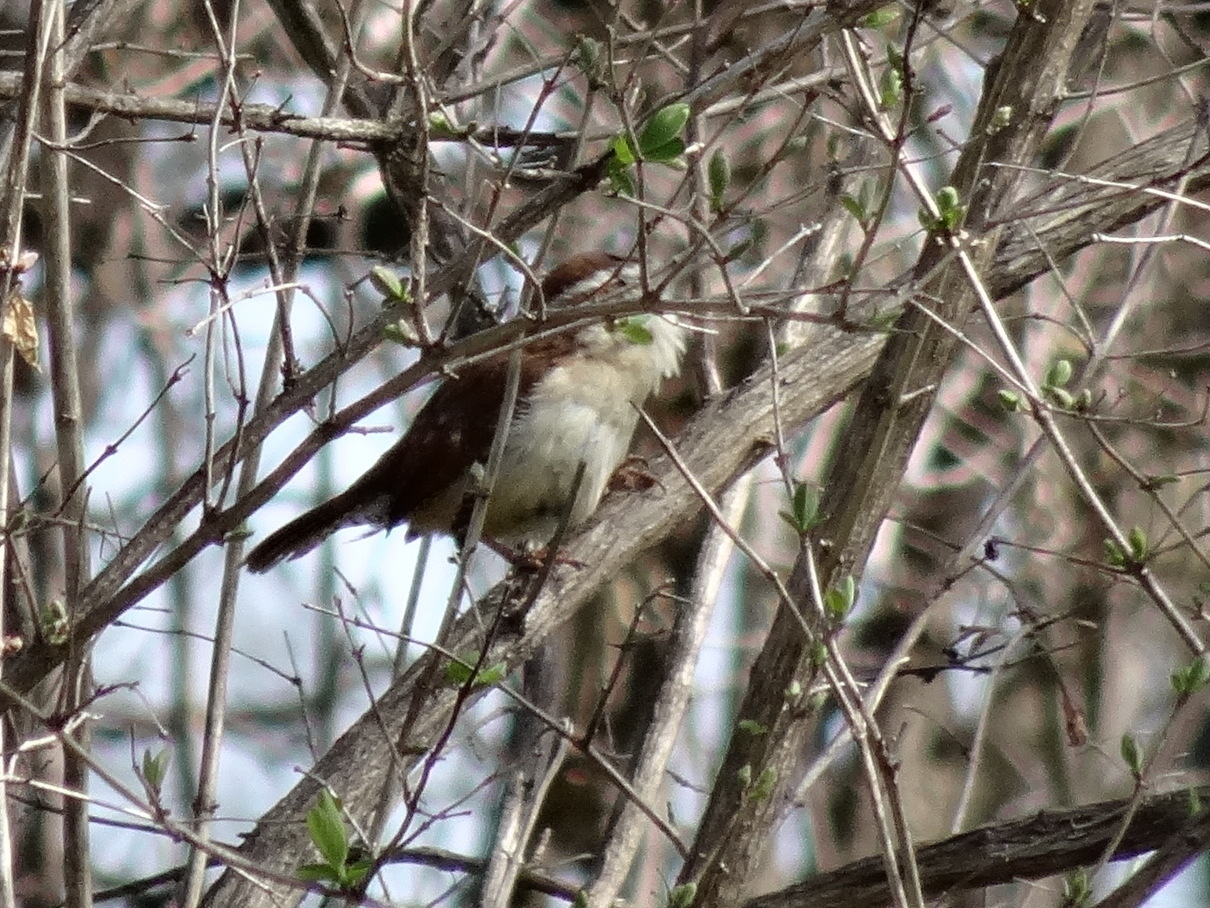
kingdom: Animalia
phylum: Chordata
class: Aves
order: Passeriformes
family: Troglodytidae
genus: Thryothorus
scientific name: Thryothorus ludovicianus
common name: Carolina wren
